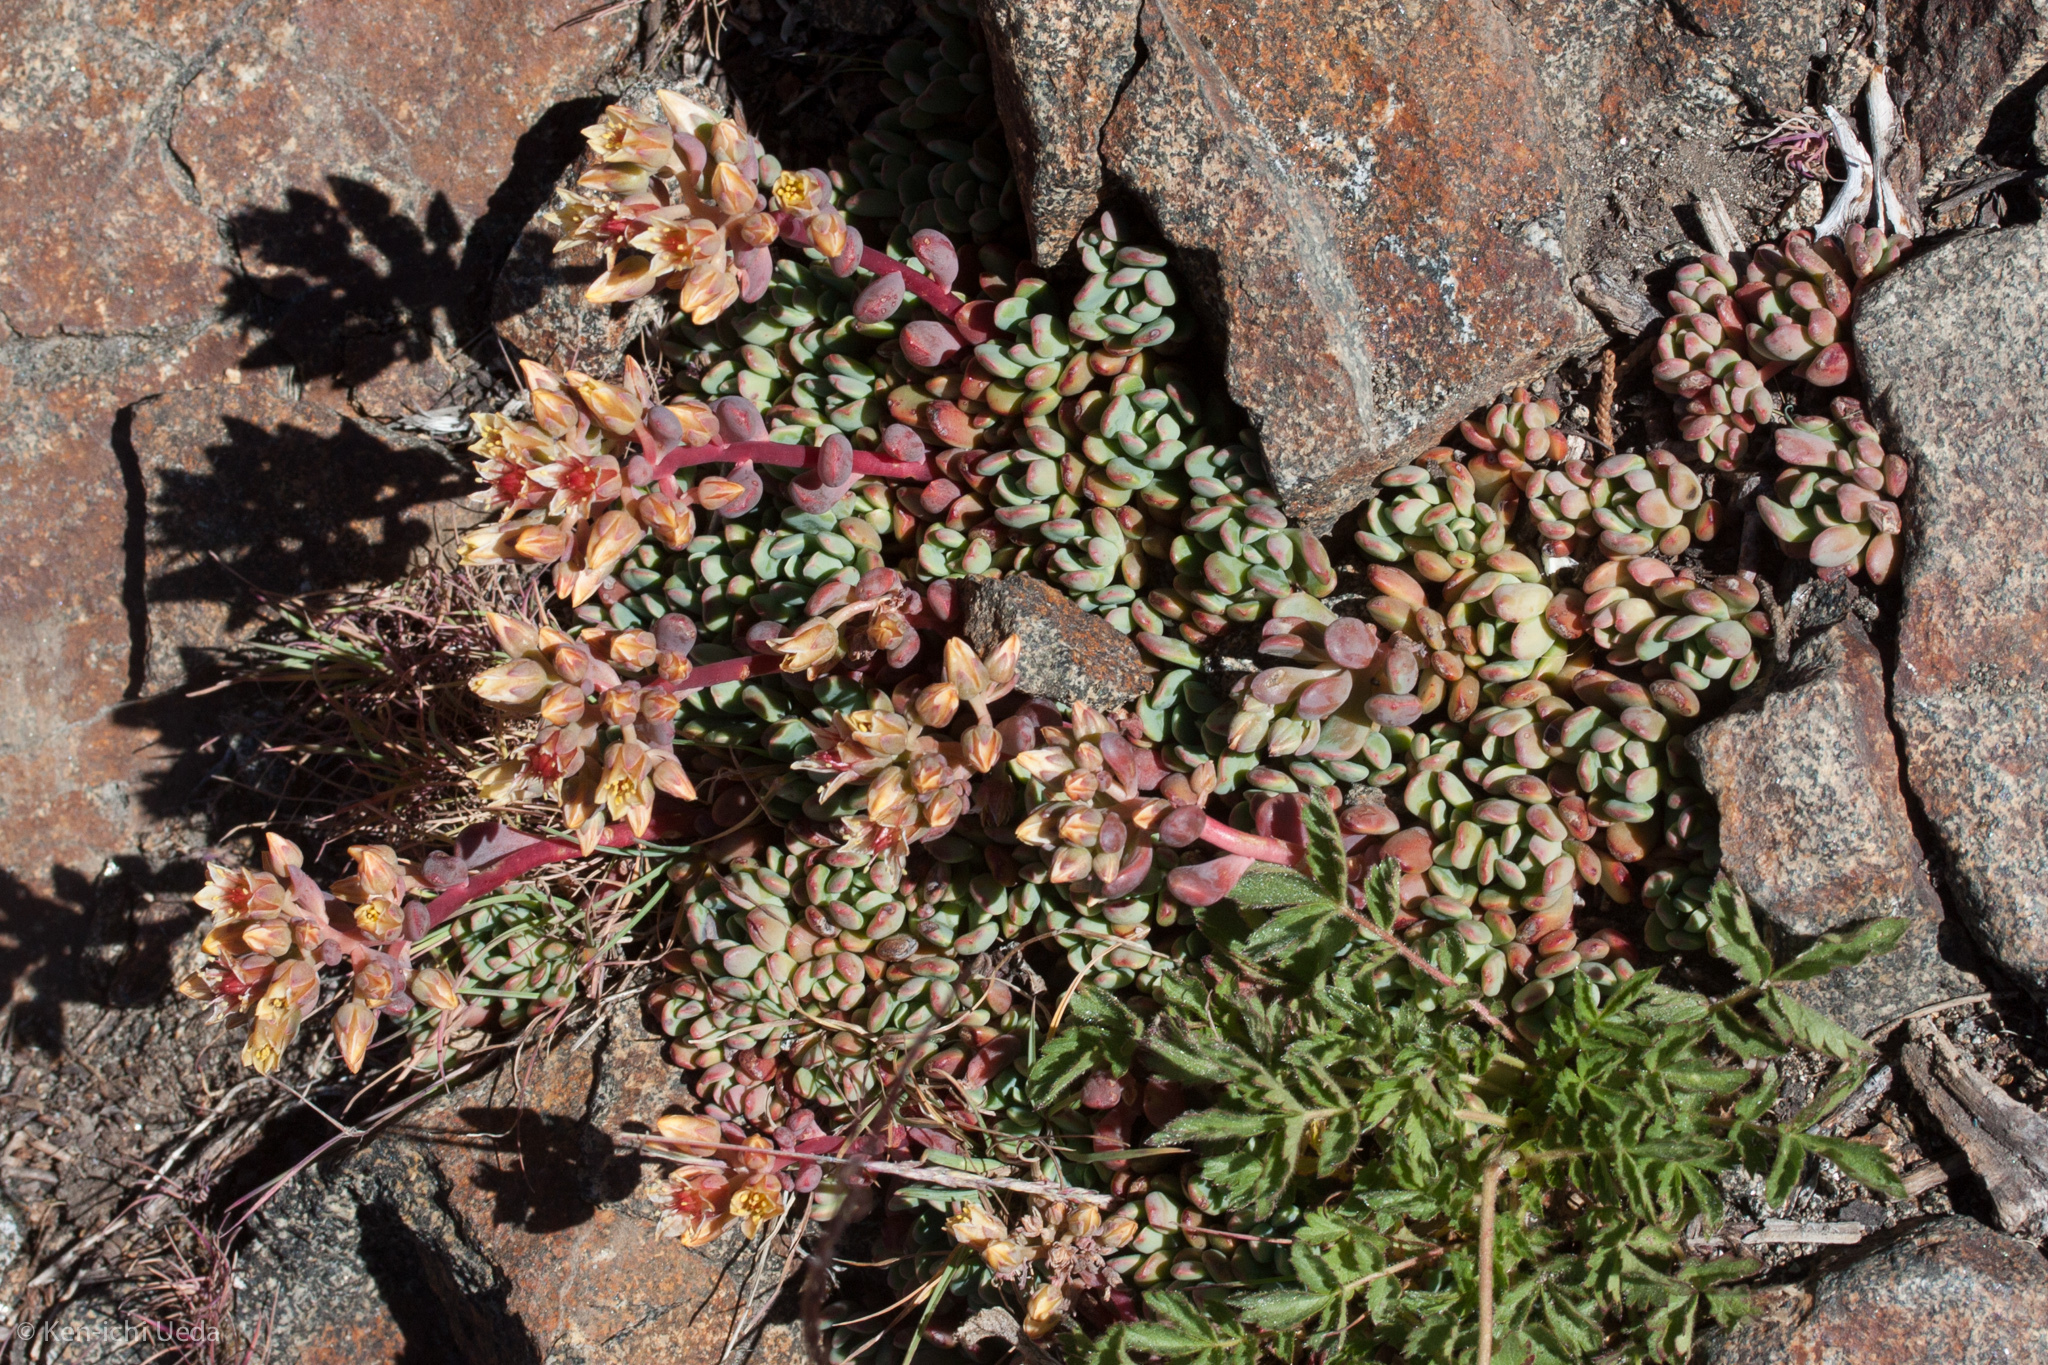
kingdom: Plantae
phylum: Tracheophyta
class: Magnoliopsida
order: Saxifragales
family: Crassulaceae
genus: Sedum
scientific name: Sedum obtusatum
